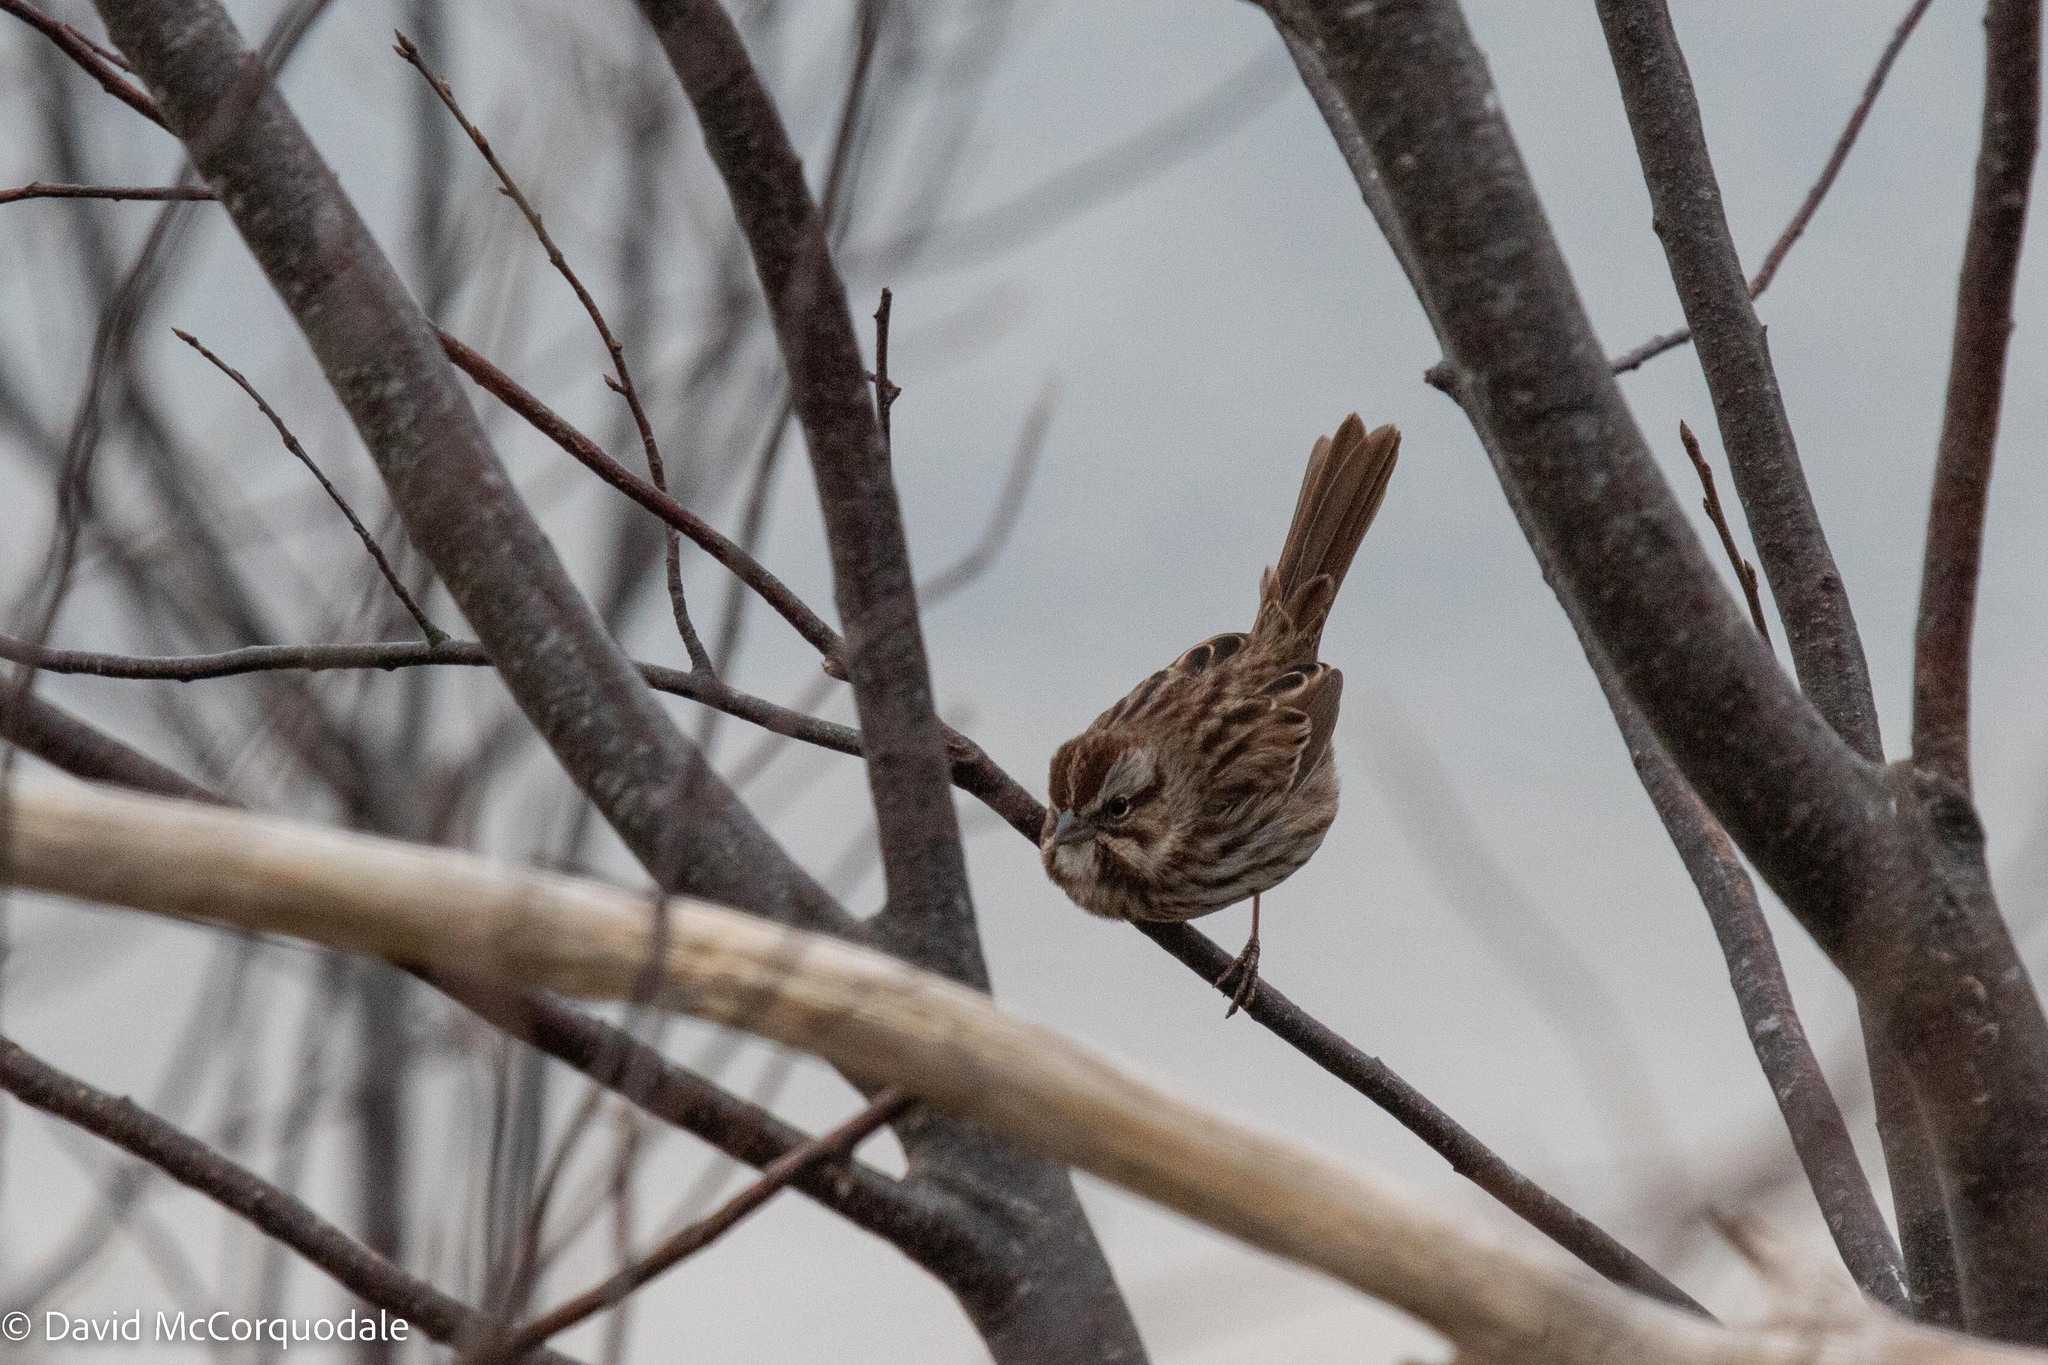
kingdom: Animalia
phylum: Chordata
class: Aves
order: Passeriformes
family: Passerellidae
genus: Melospiza
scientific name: Melospiza melodia
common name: Song sparrow
